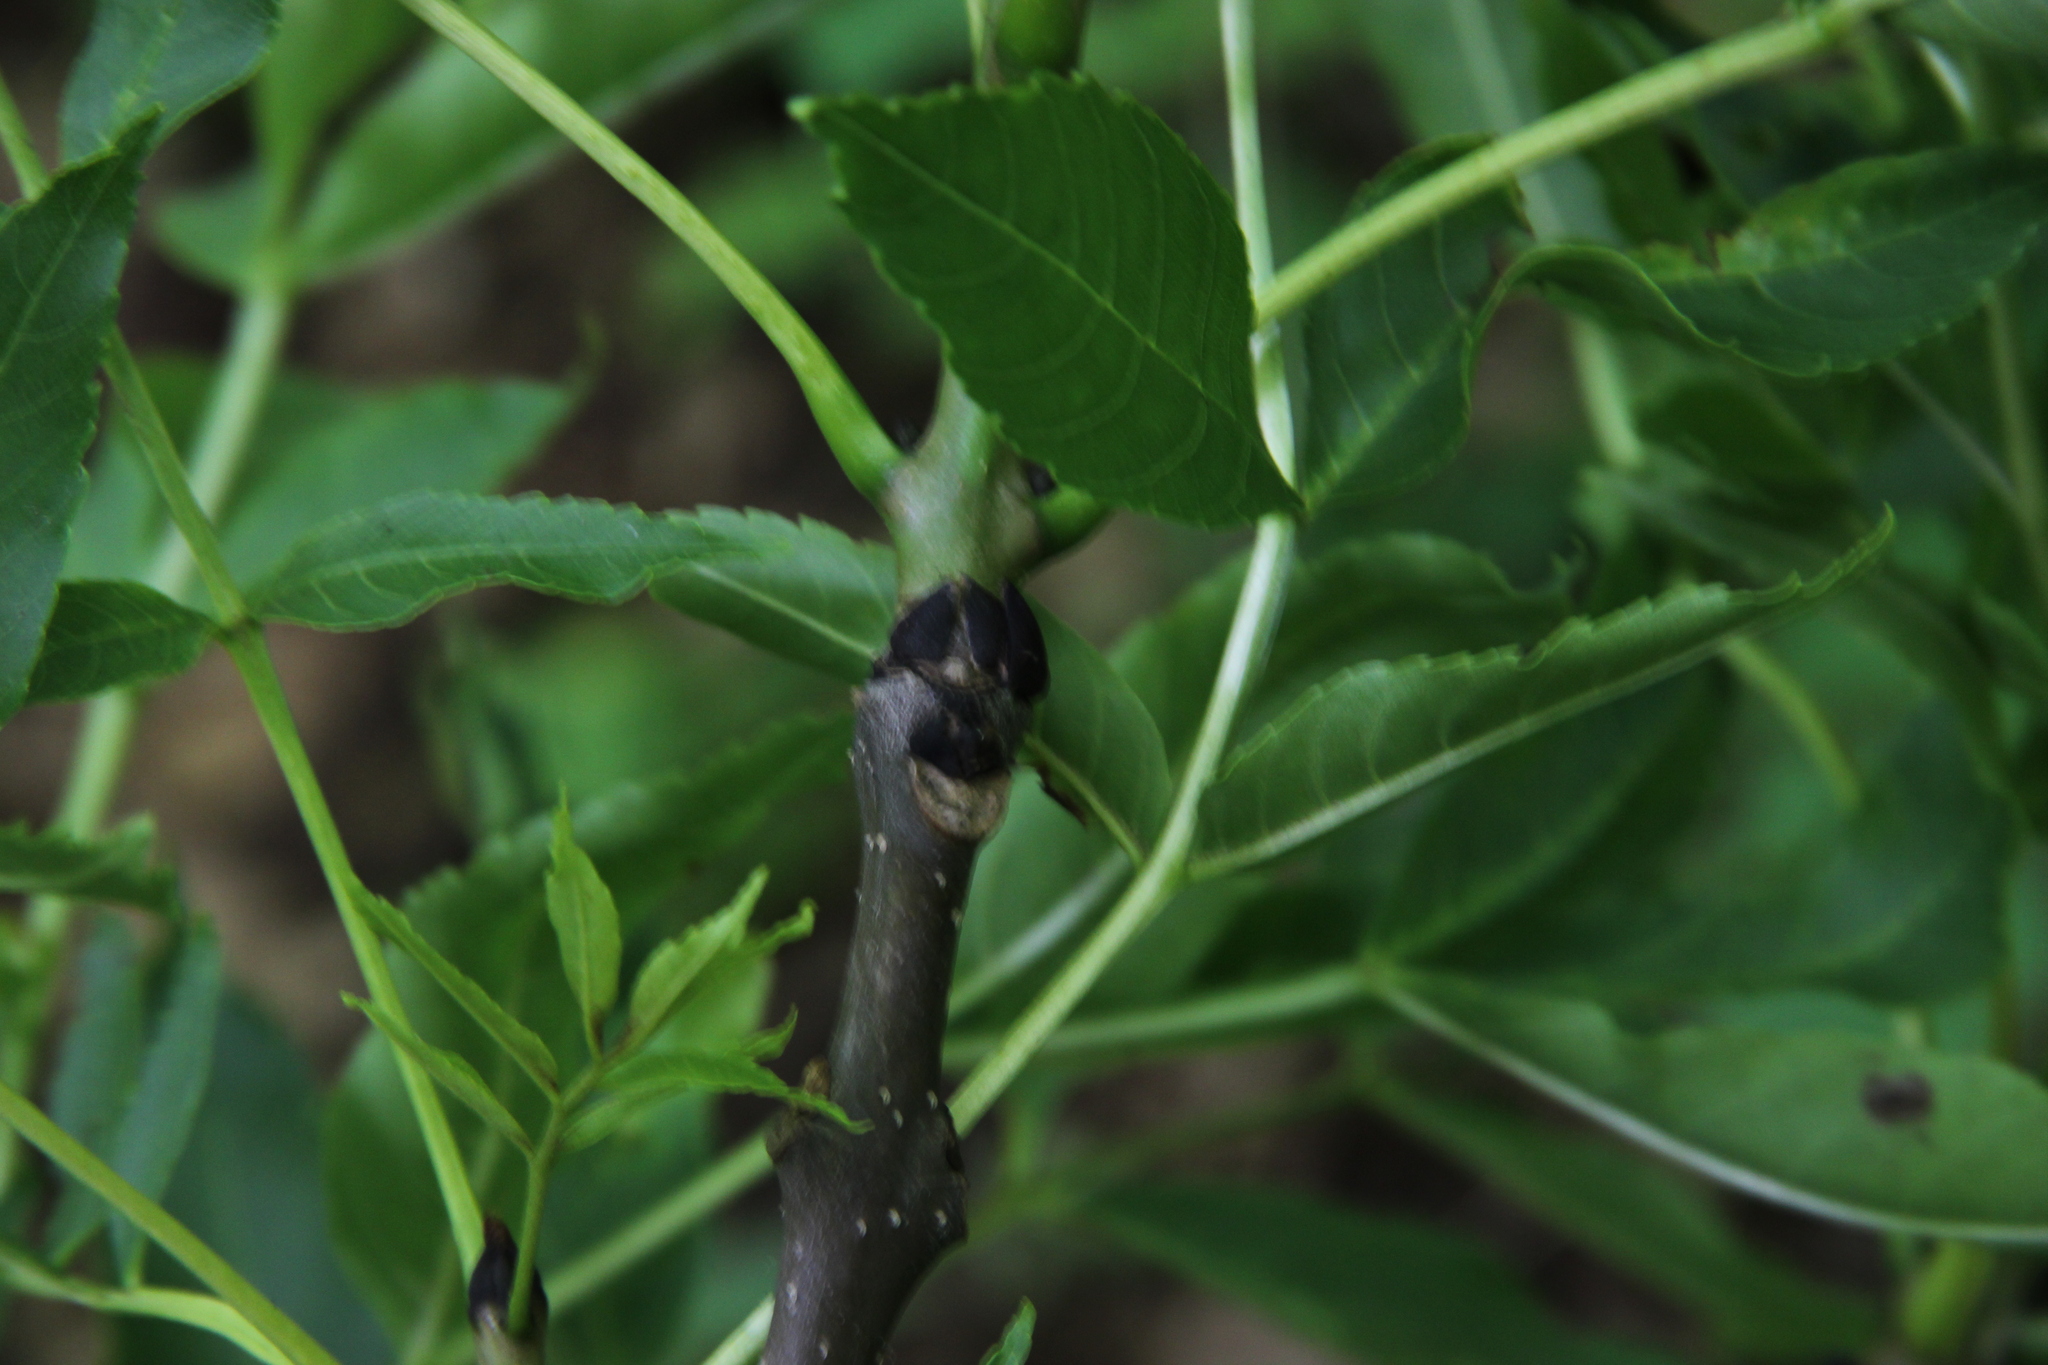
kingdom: Plantae
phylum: Tracheophyta
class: Magnoliopsida
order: Lamiales
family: Oleaceae
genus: Fraxinus
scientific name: Fraxinus excelsior
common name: European ash
